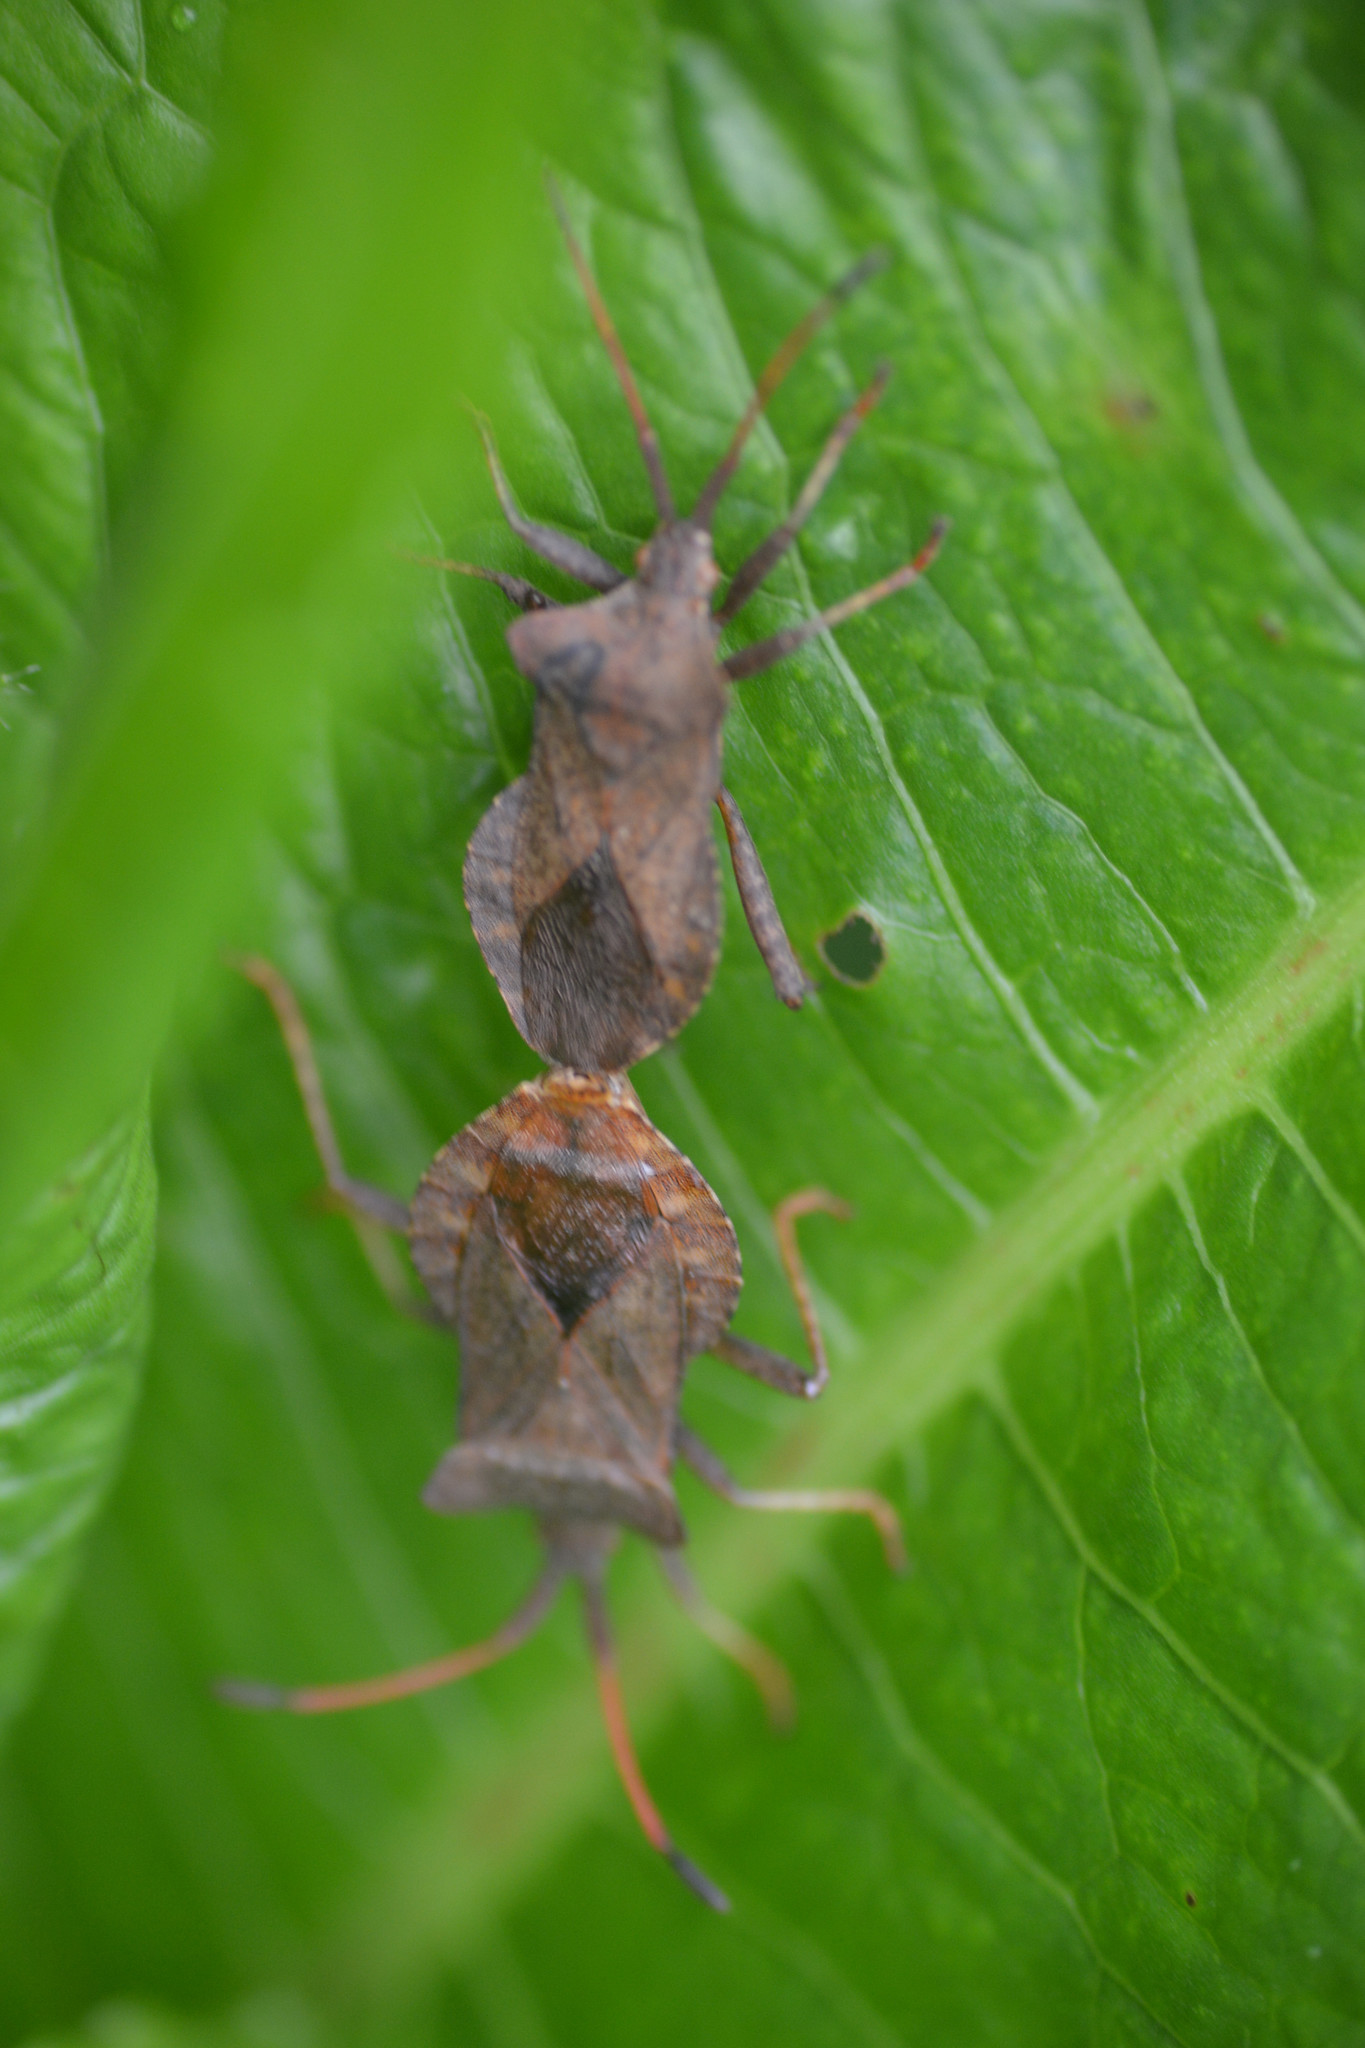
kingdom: Animalia
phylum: Arthropoda
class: Insecta
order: Hemiptera
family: Coreidae
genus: Coreus
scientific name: Coreus marginatus
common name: Dock bug
